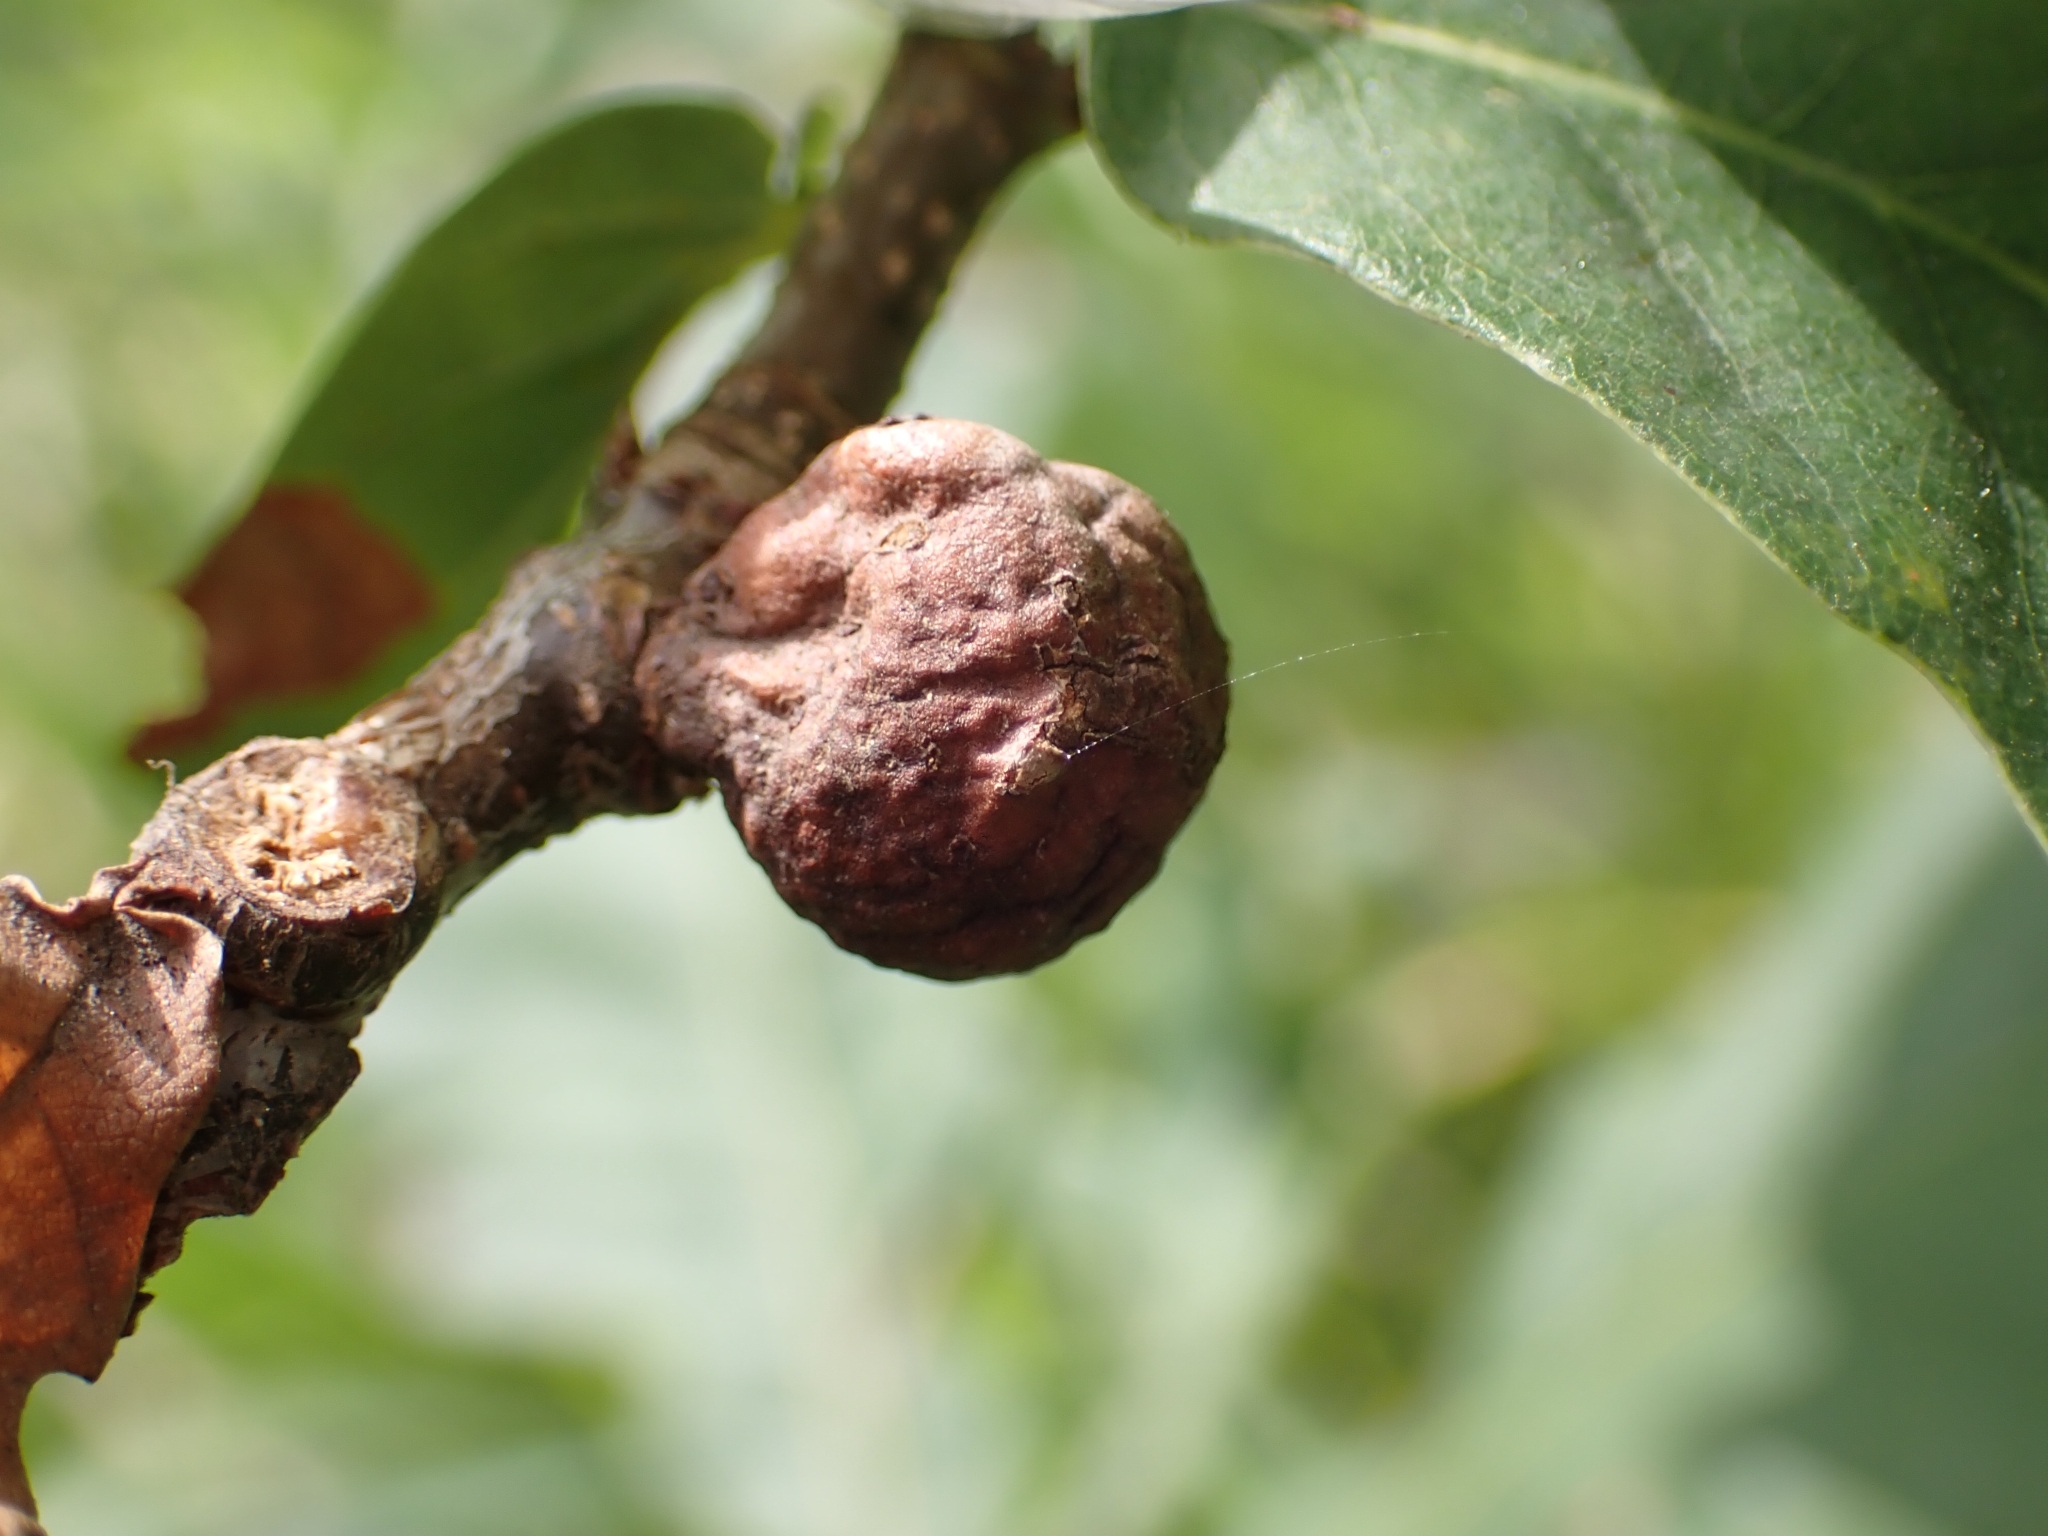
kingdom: Animalia
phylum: Arthropoda
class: Insecta
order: Hymenoptera
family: Cynipidae
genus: Andricus
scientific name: Andricus lignicolus
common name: Cola-nut gall
